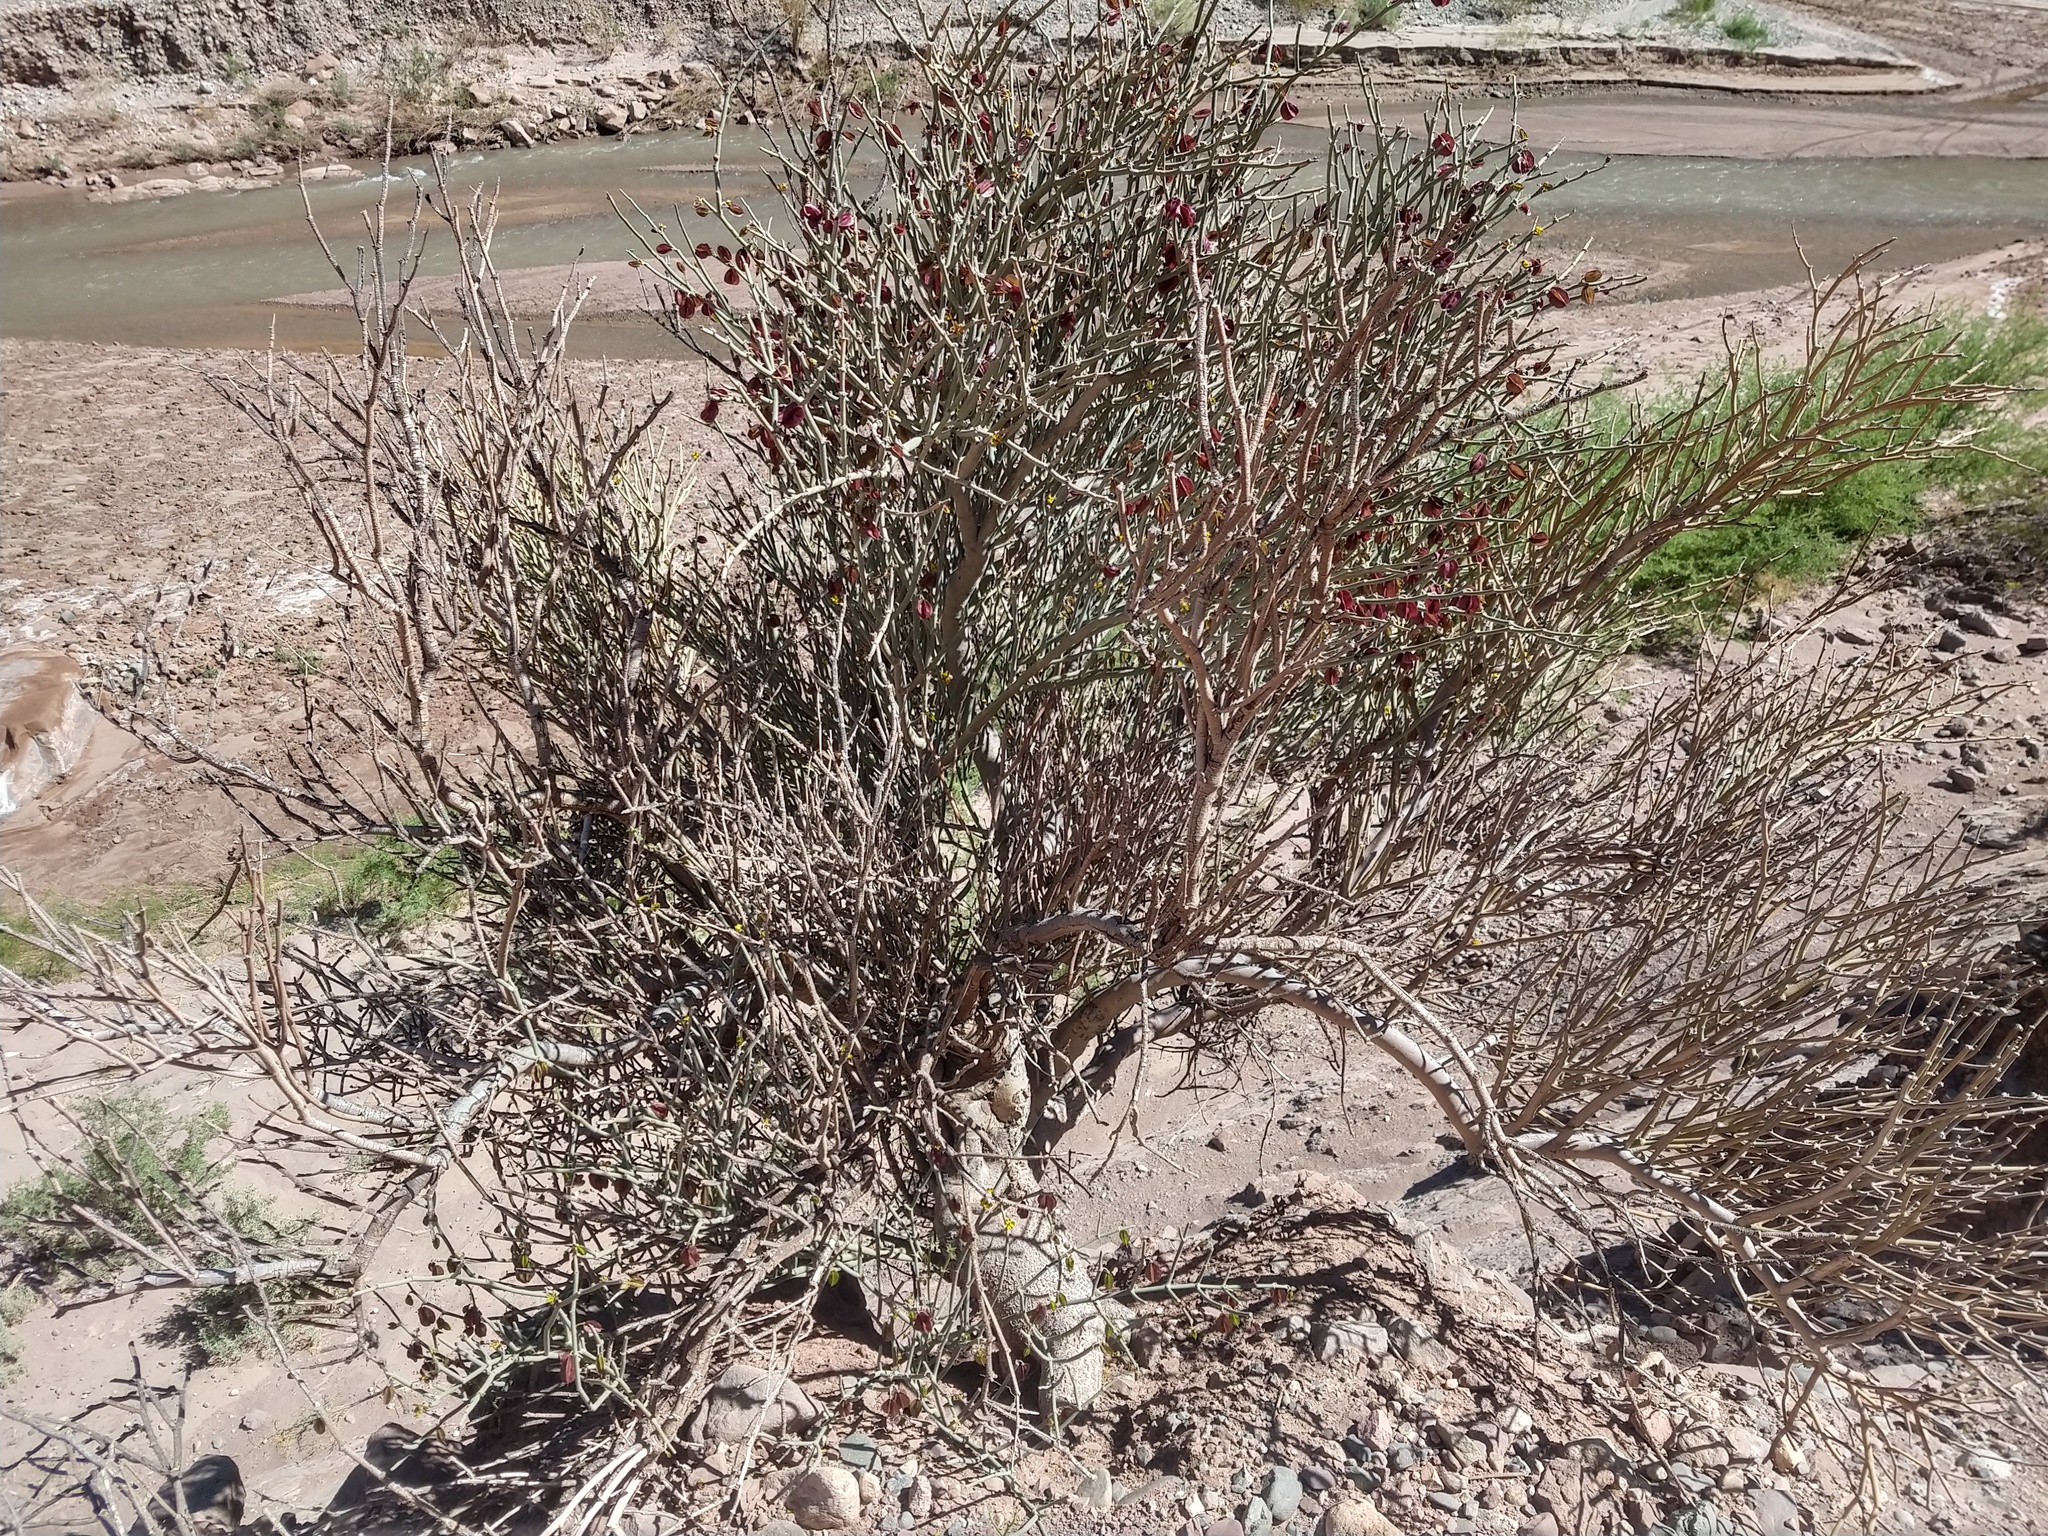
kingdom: Plantae
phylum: Tracheophyta
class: Magnoliopsida
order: Zygophyllales
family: Zygophyllaceae
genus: Bulnesia
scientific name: Bulnesia retama
